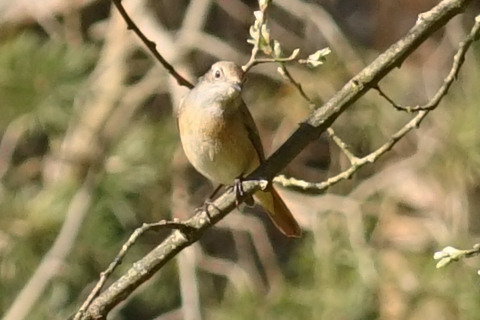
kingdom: Animalia
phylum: Chordata
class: Aves
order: Passeriformes
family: Muscicapidae
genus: Phoenicurus
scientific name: Phoenicurus phoenicurus
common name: Common redstart
